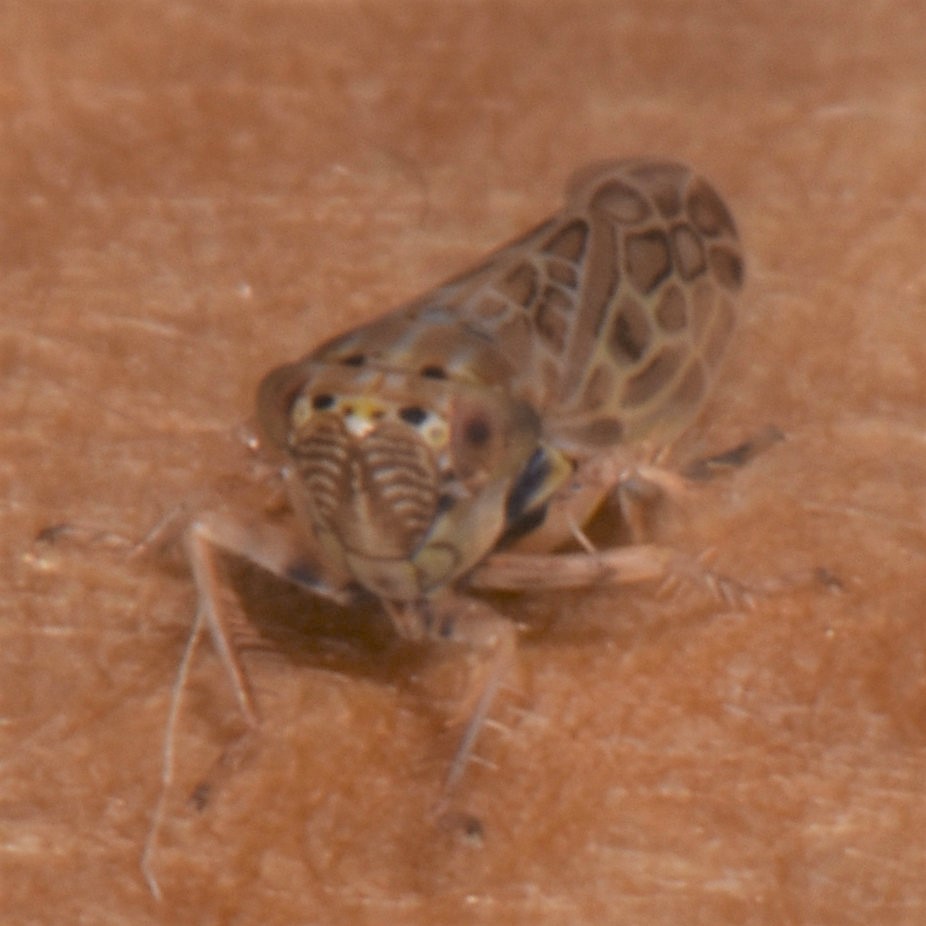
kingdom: Animalia
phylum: Arthropoda
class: Insecta
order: Hemiptera
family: Cicadellidae
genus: Endria
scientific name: Endria inimicus
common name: Painted leafhopper
